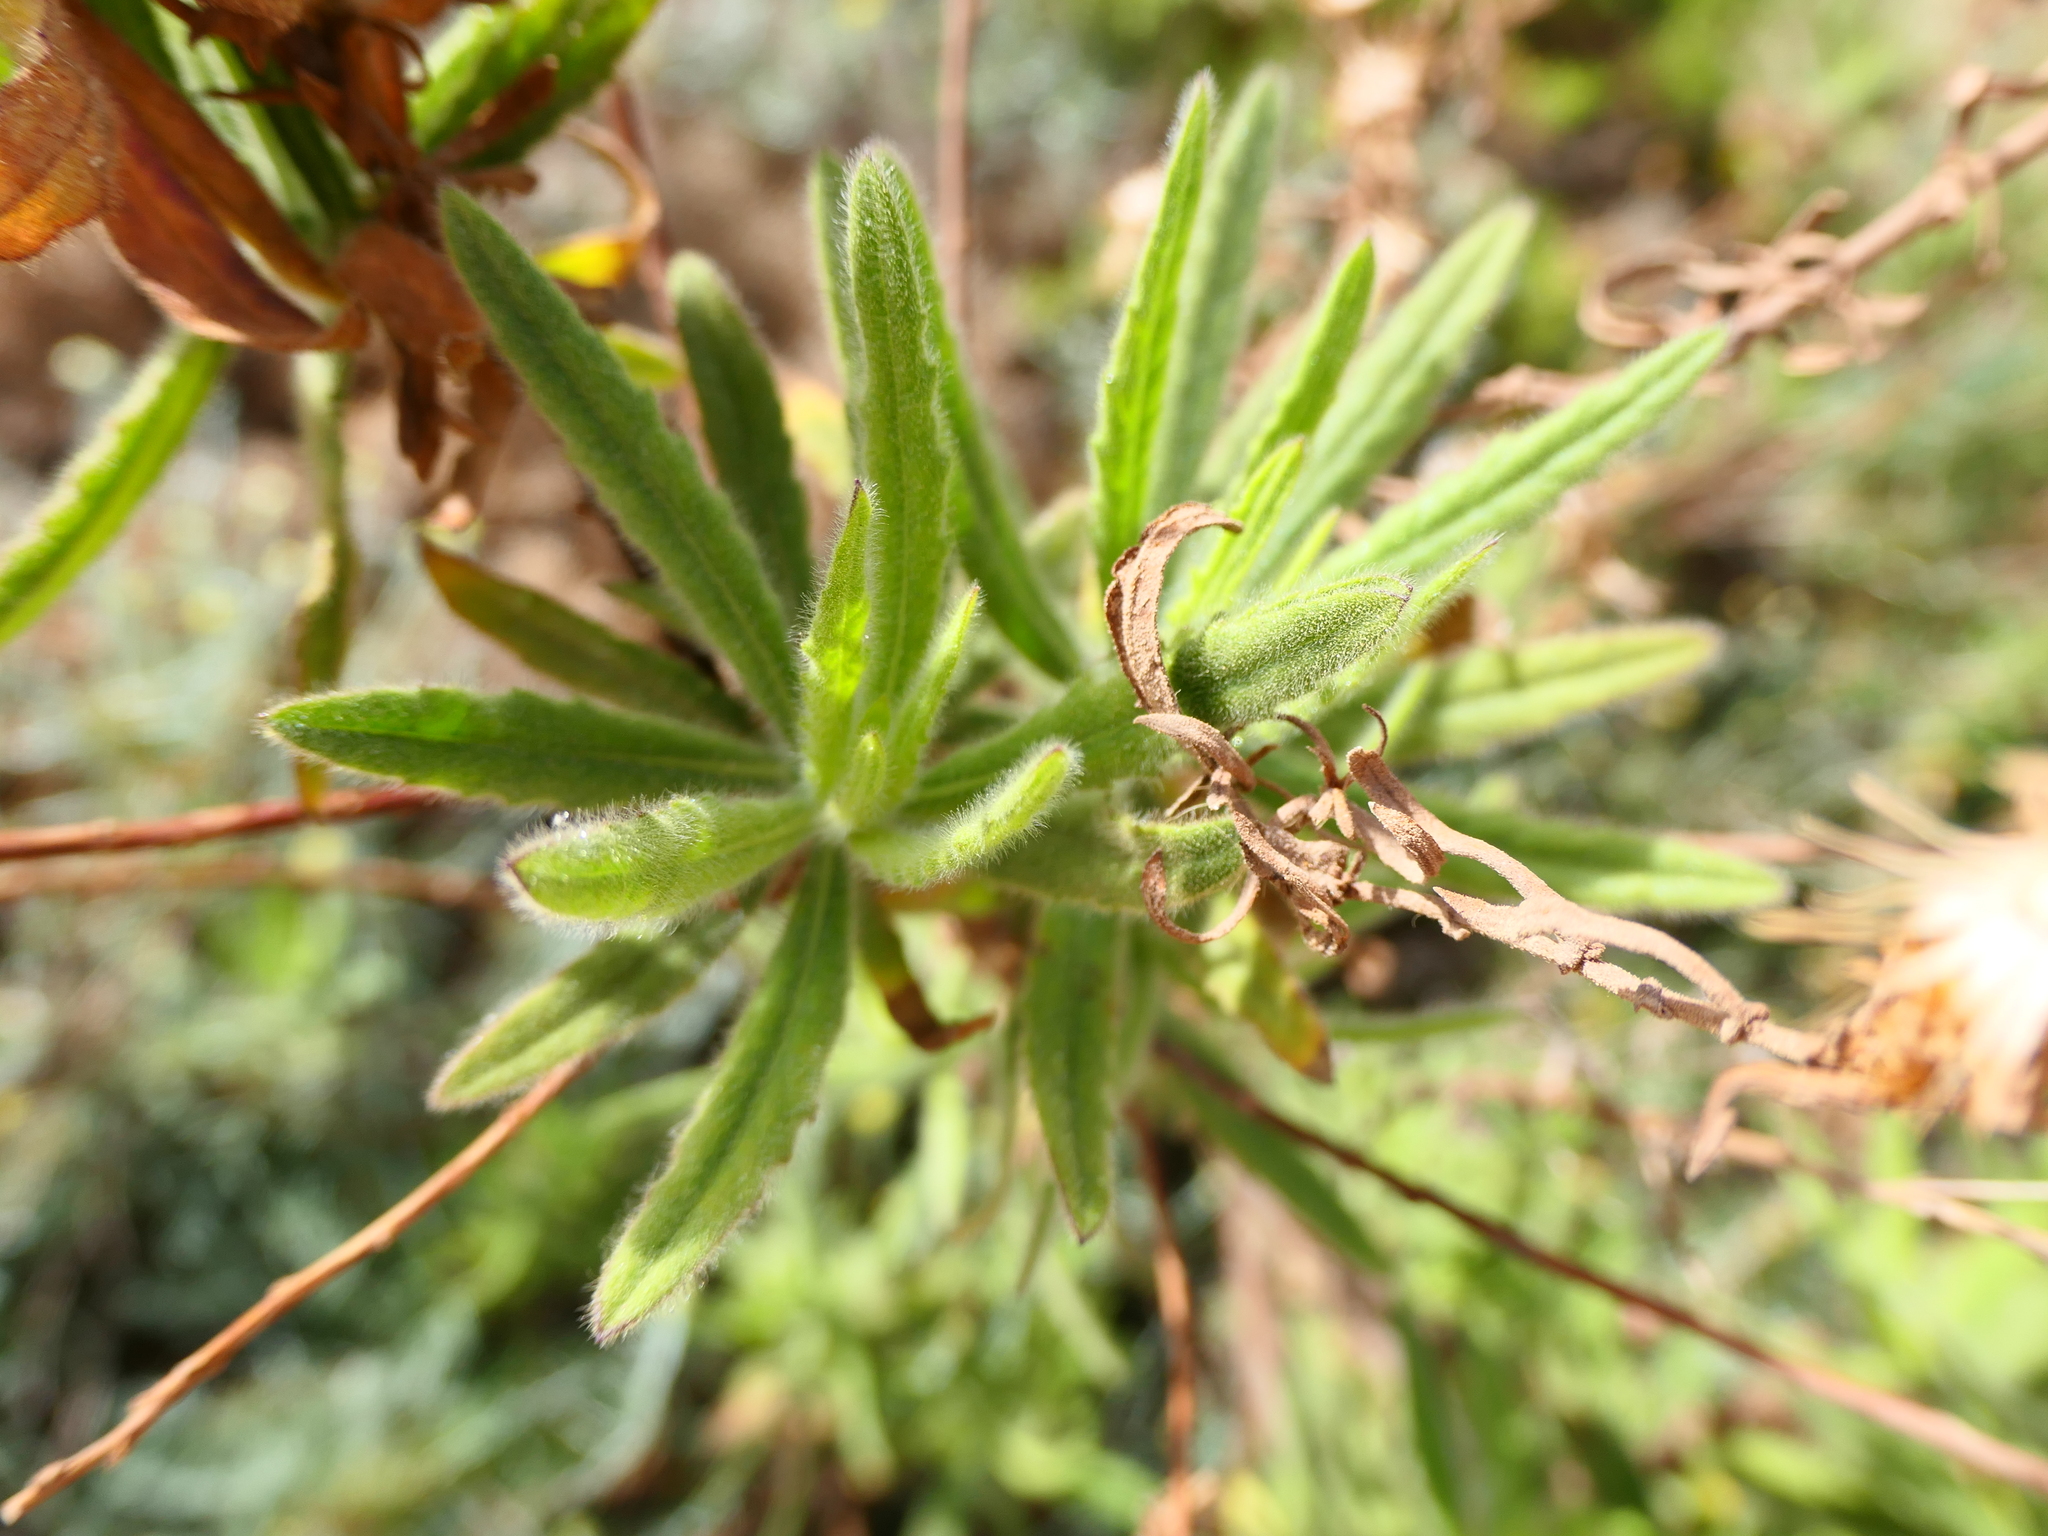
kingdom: Plantae
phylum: Tracheophyta
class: Magnoliopsida
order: Asterales
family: Asteraceae
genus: Dittrichia
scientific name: Dittrichia viscosa
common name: Woody fleabane
